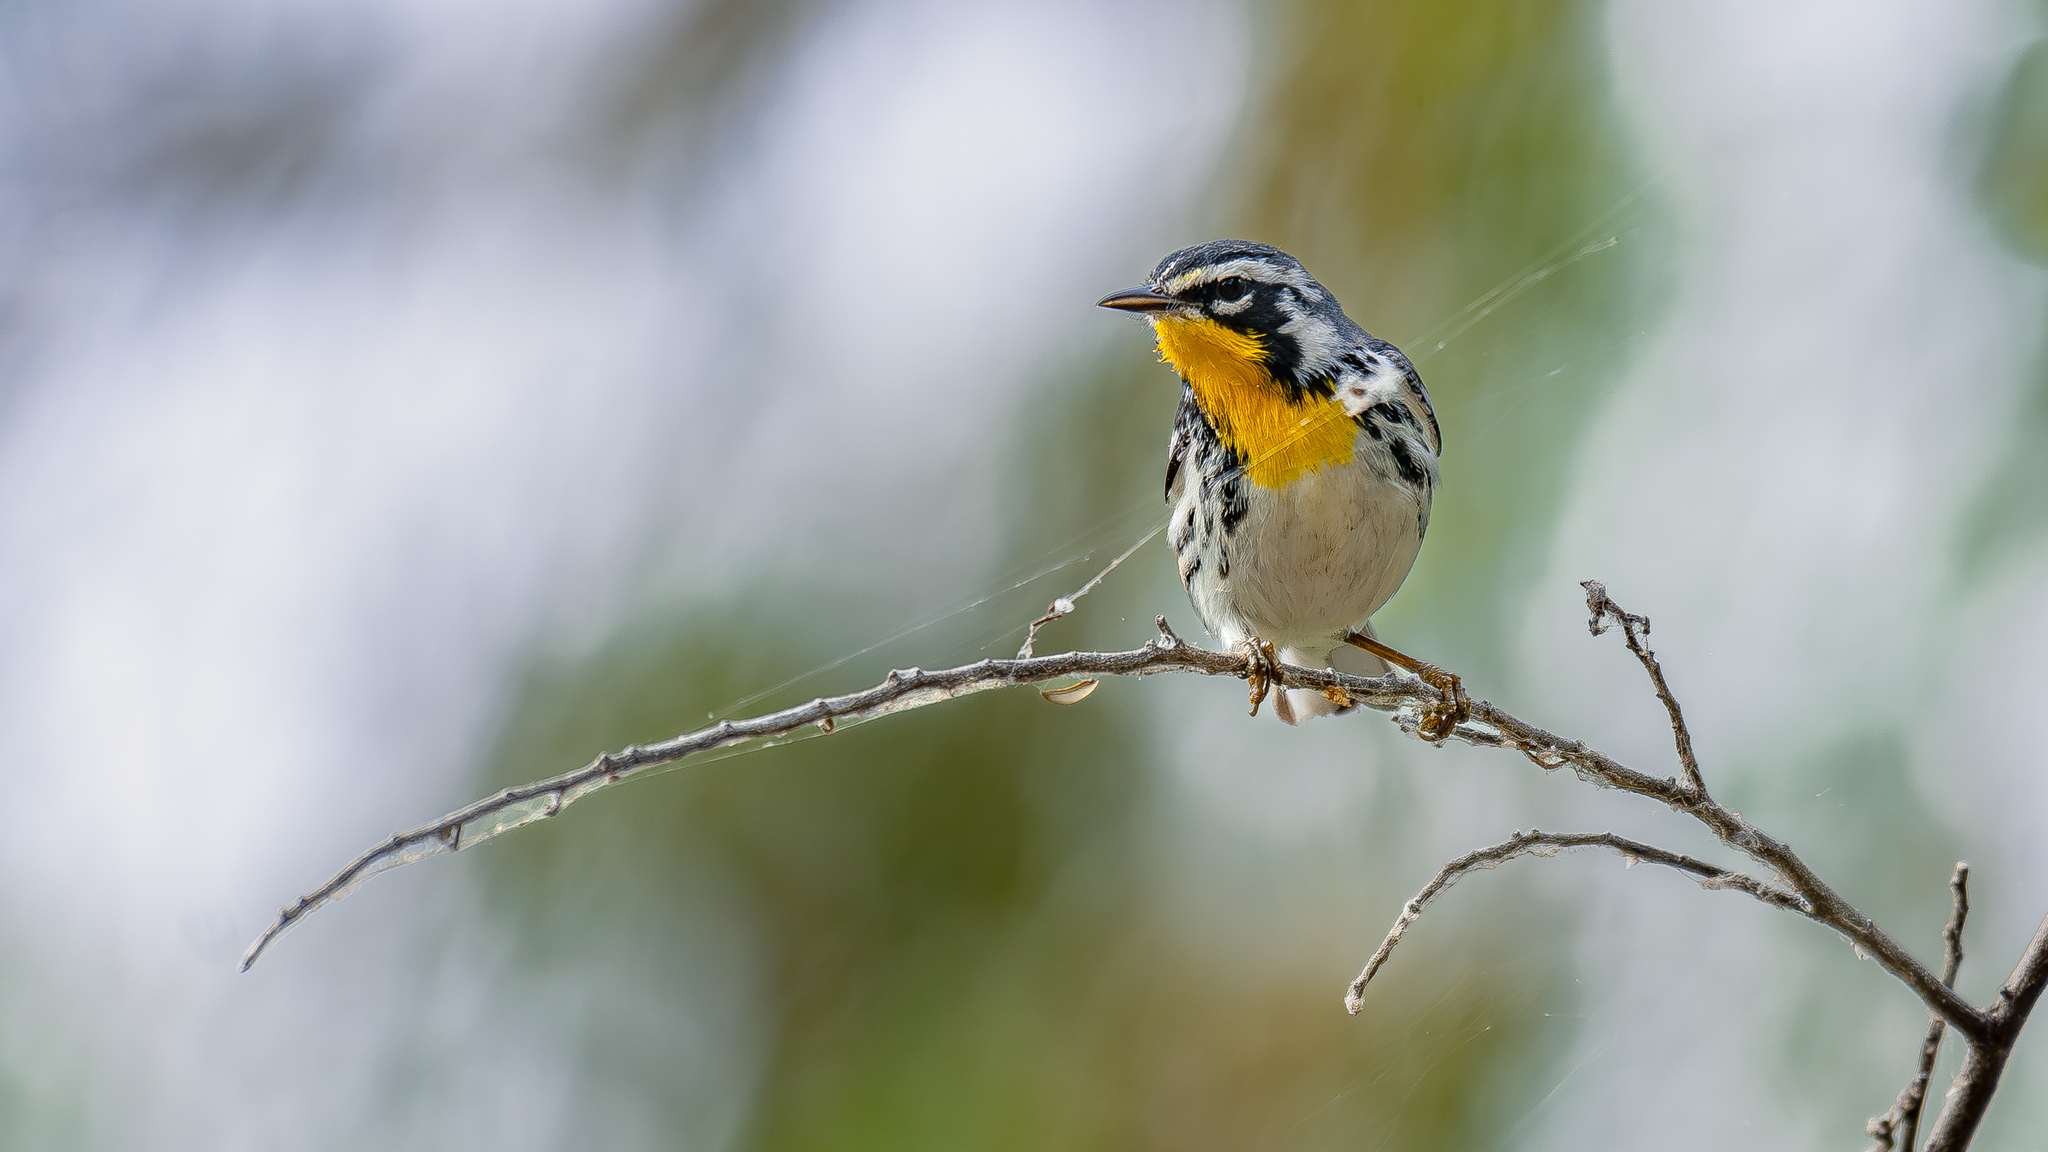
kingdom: Animalia
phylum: Chordata
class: Aves
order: Passeriformes
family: Parulidae
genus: Setophaga
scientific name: Setophaga dominica
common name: Yellow-throated warbler
